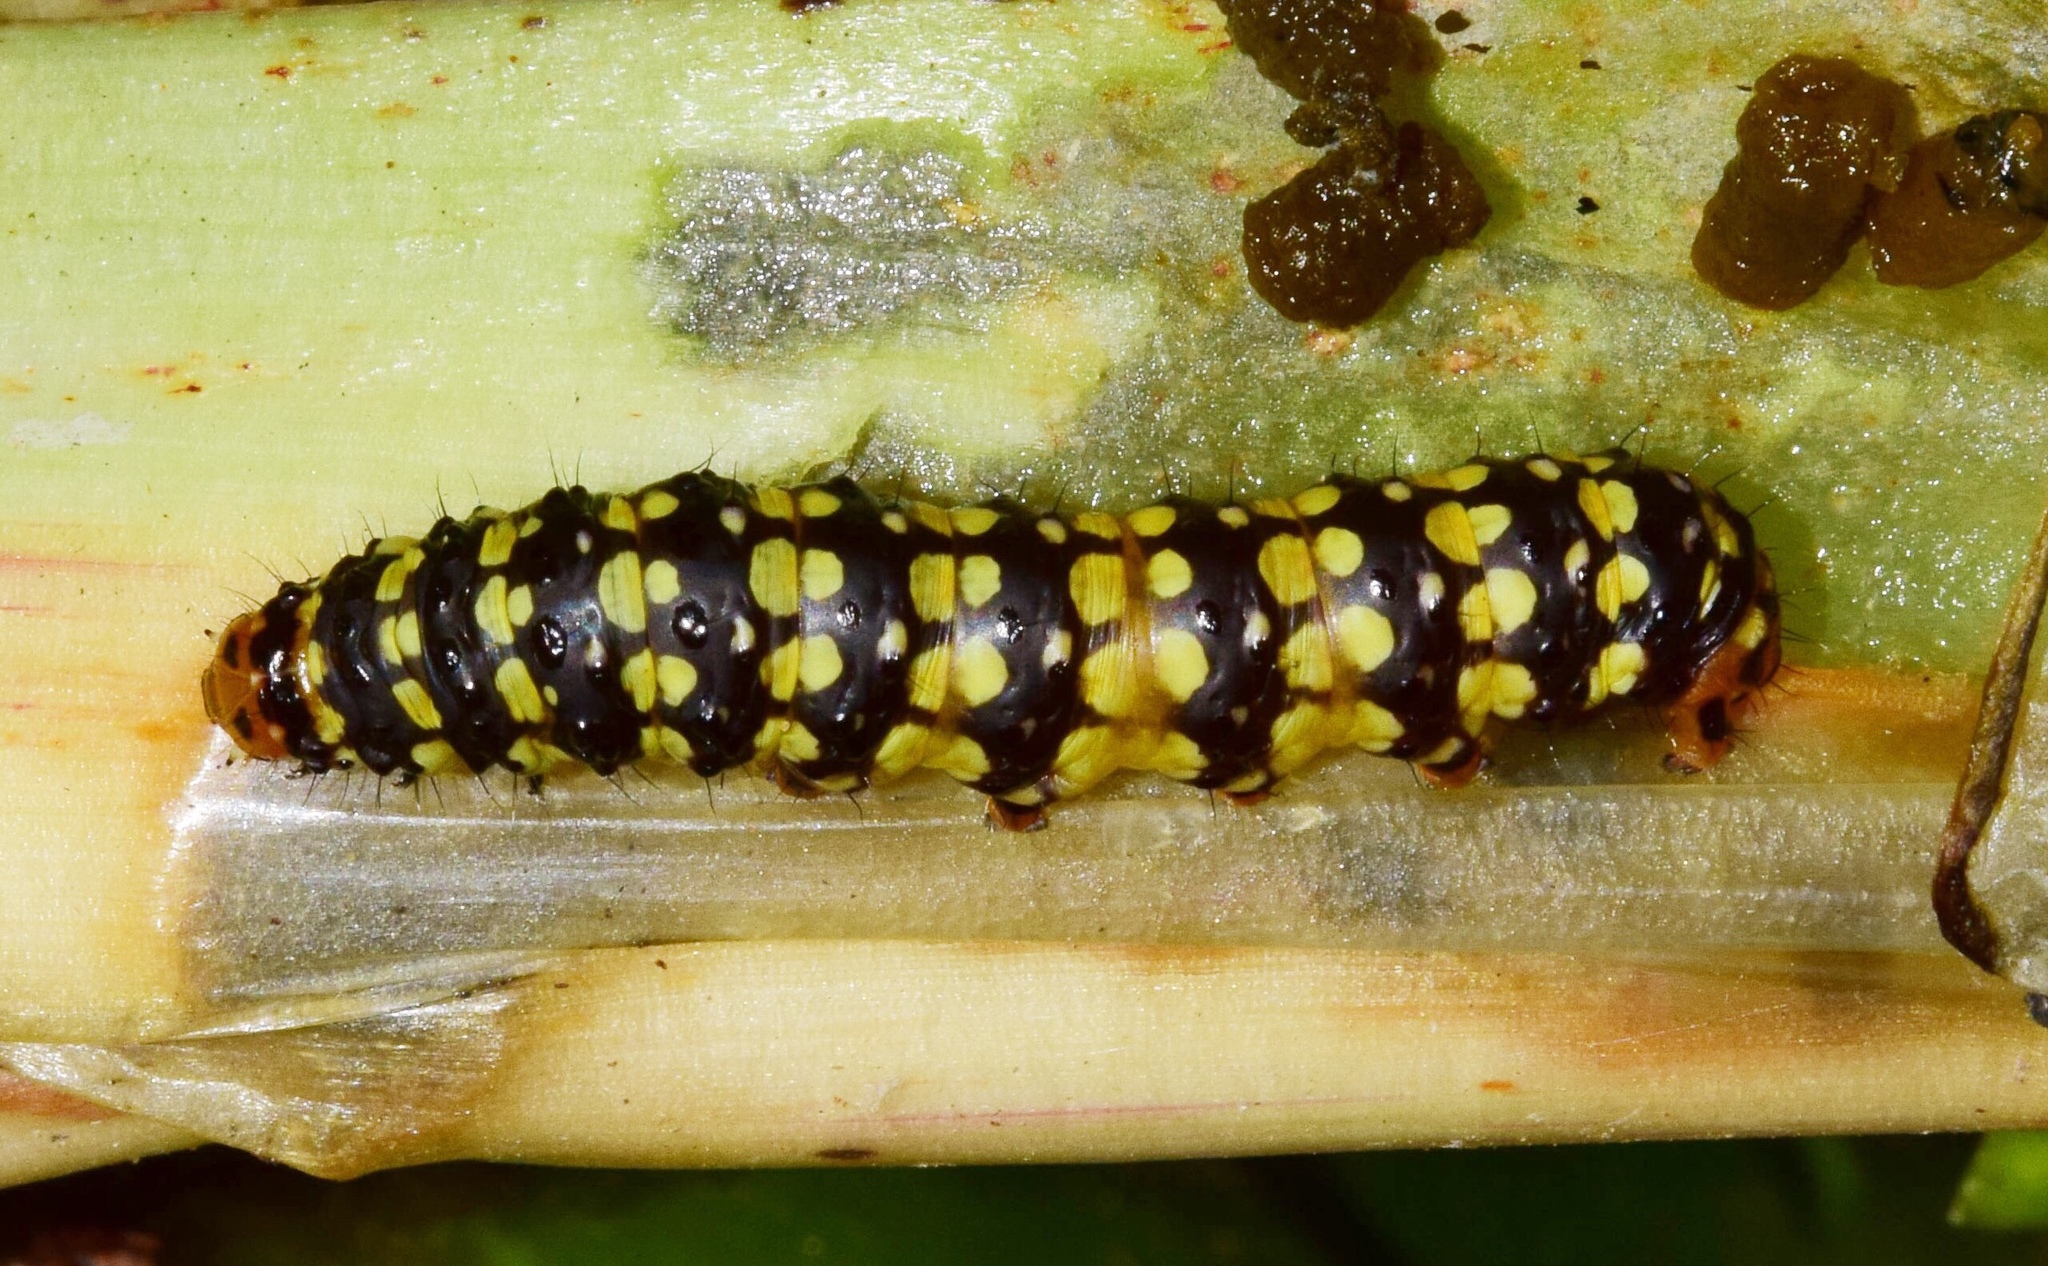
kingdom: Animalia
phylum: Arthropoda
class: Insecta
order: Lepidoptera
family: Noctuidae
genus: Brithys
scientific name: Brithys crini
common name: Kew arches
